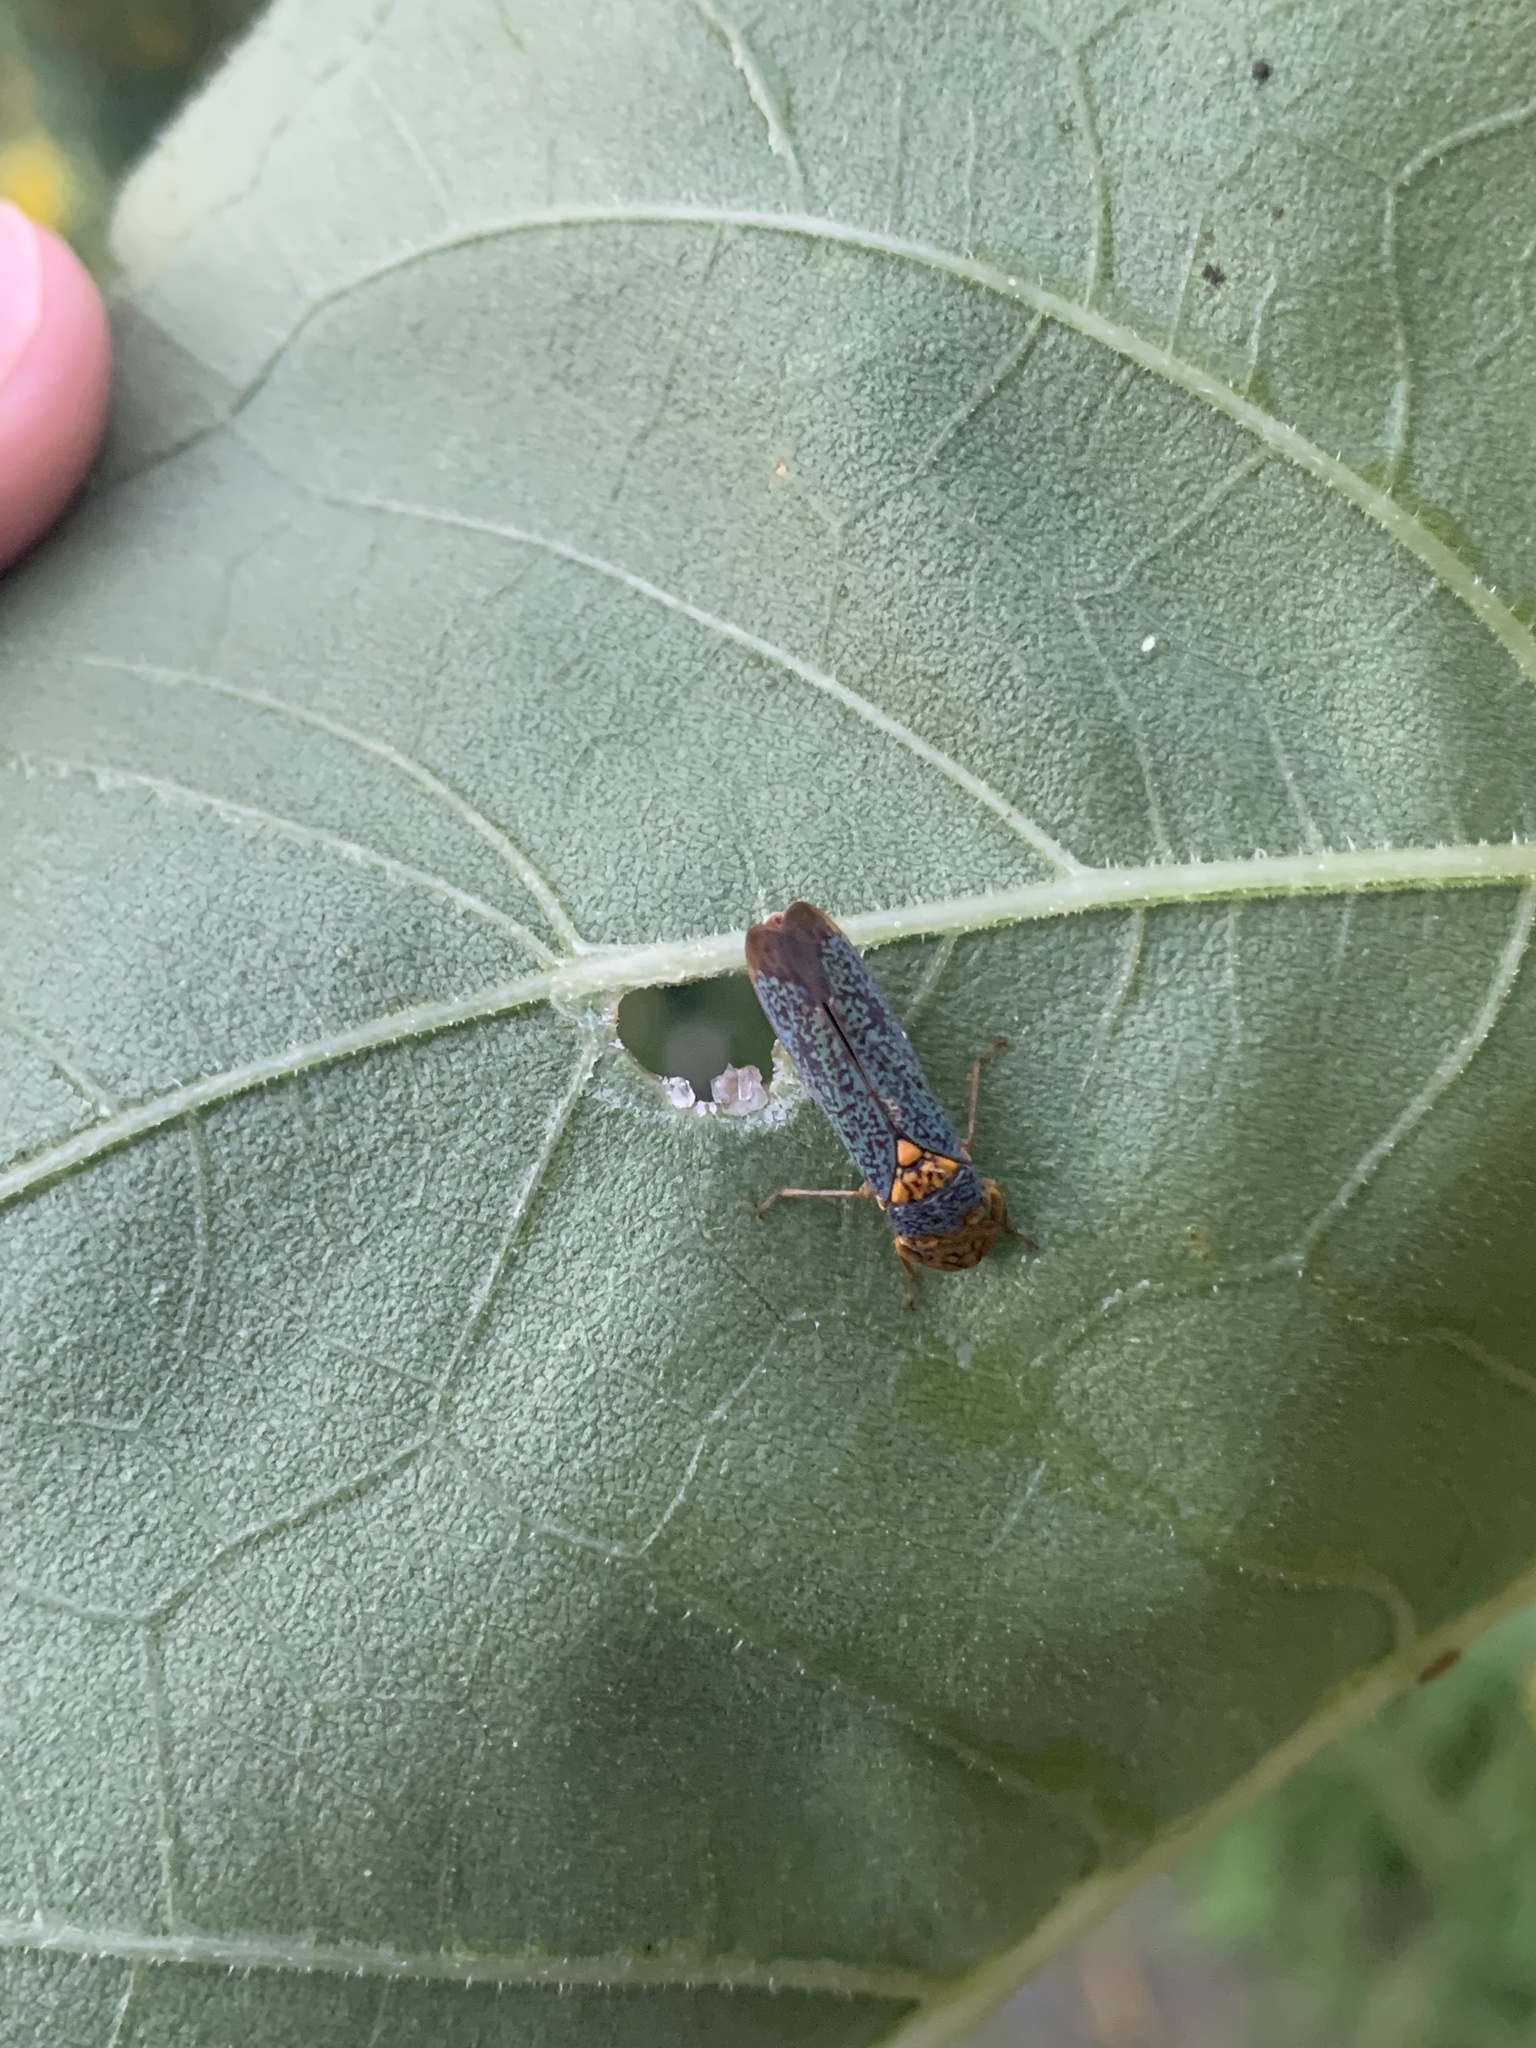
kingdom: Animalia
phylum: Arthropoda
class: Insecta
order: Hemiptera
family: Cicadellidae
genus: Oncometopia
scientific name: Oncometopia orbona
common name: Broad-headed sharpshooter
